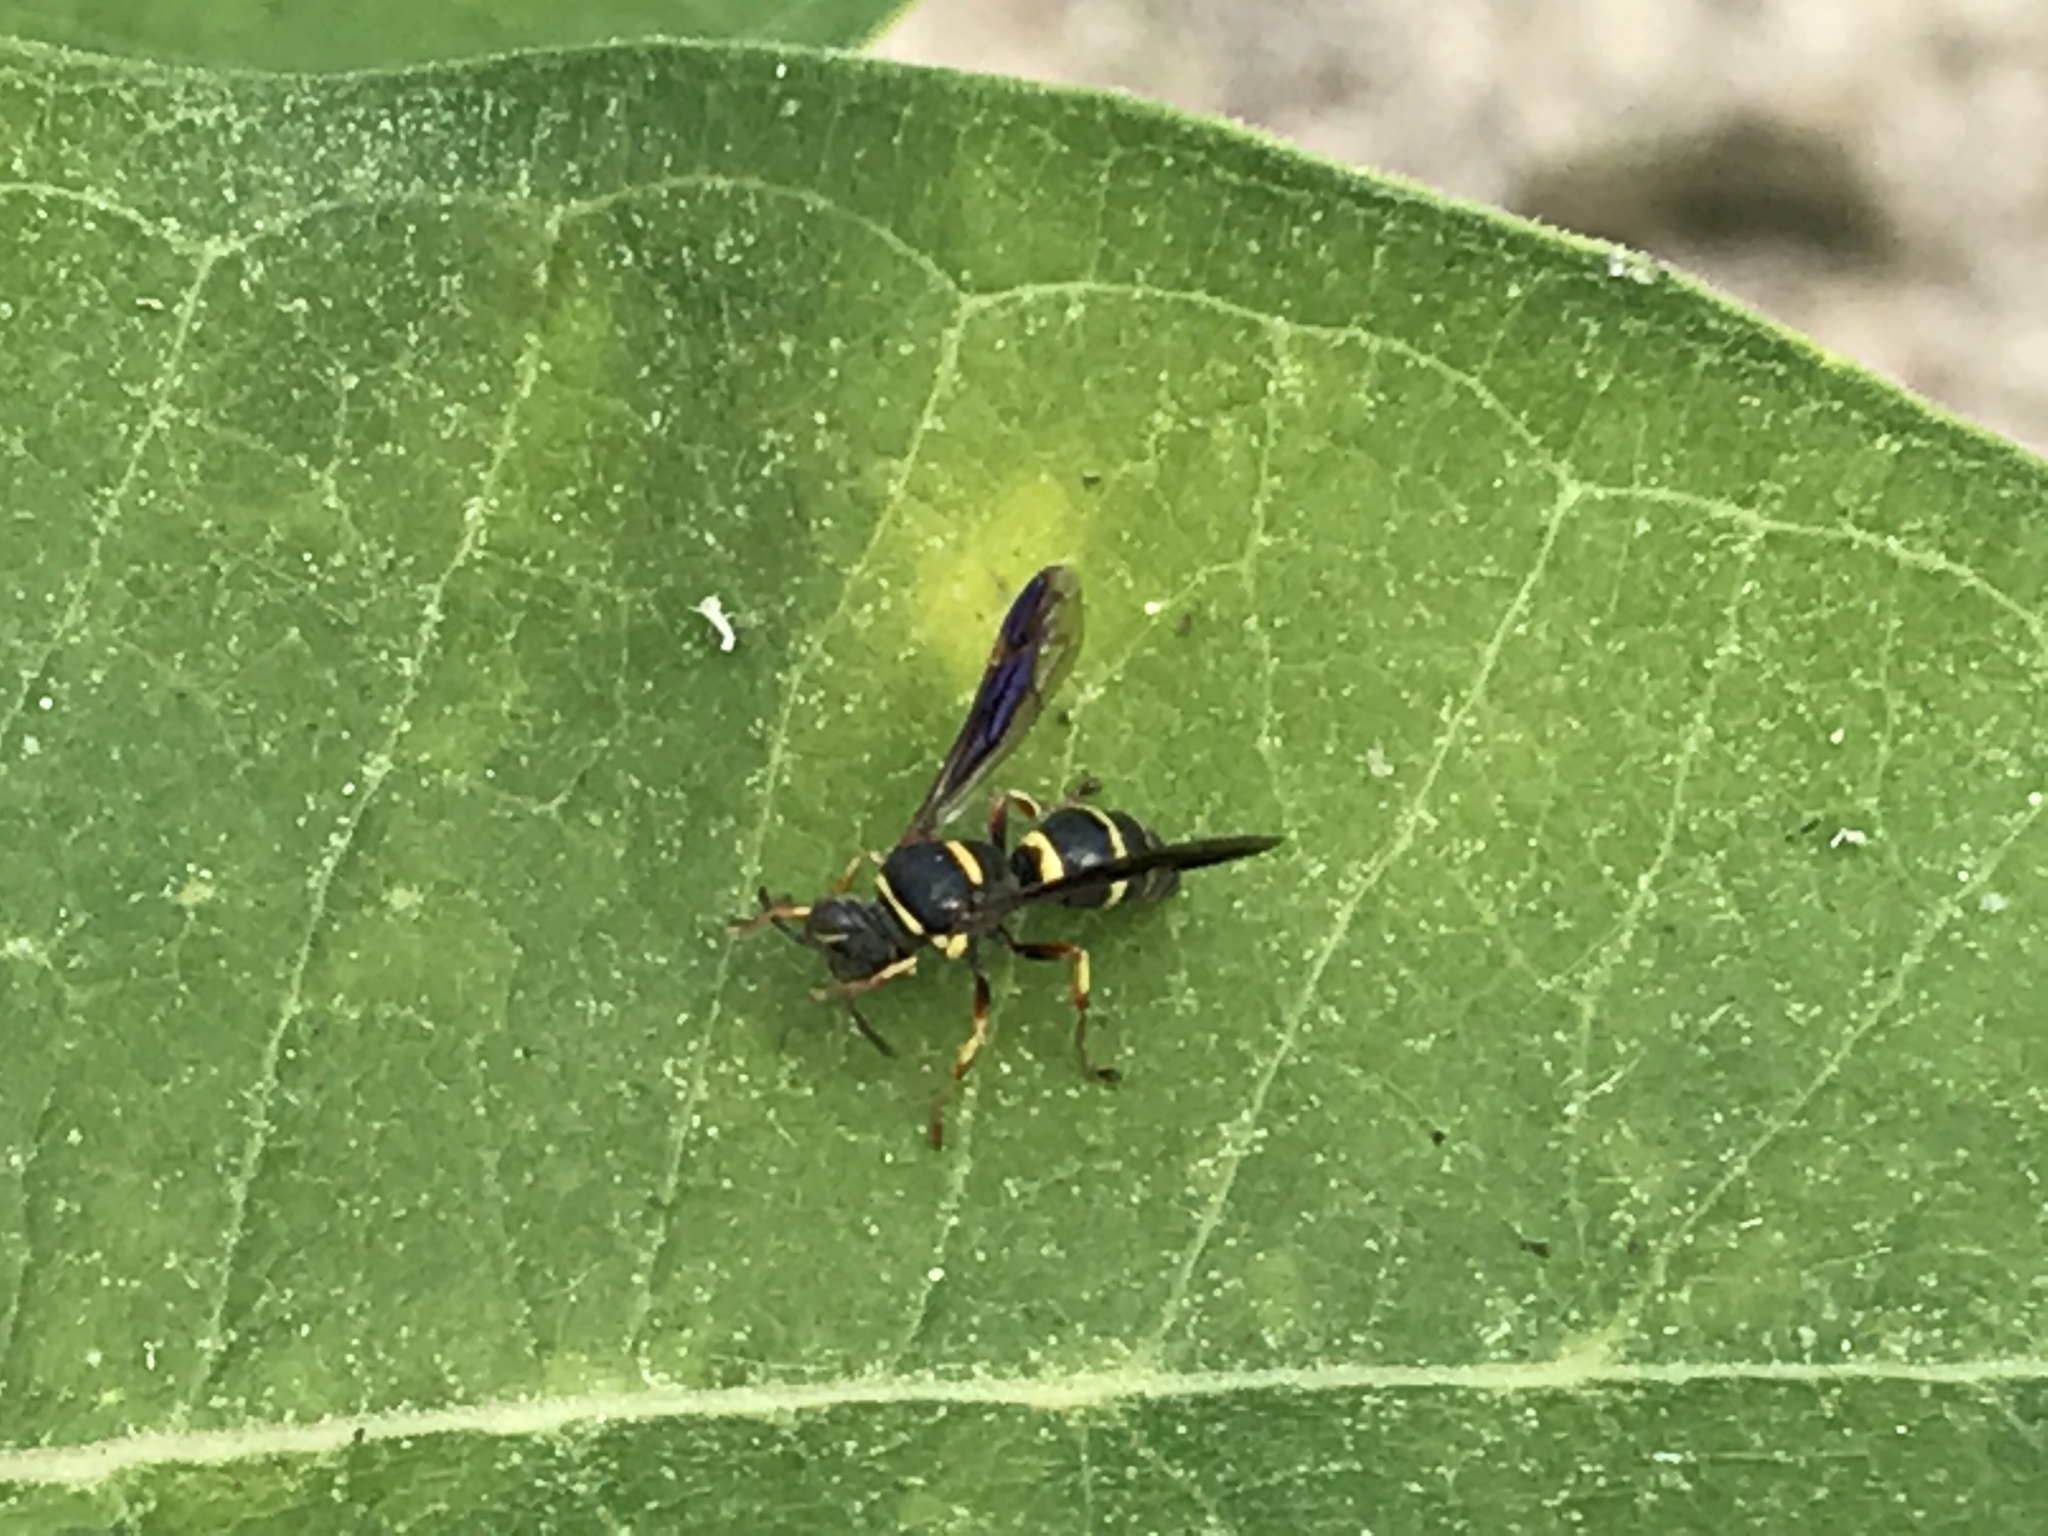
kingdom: Animalia
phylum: Arthropoda
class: Insecta
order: Hymenoptera
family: Crabronidae
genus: Gorytes
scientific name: Gorytes
